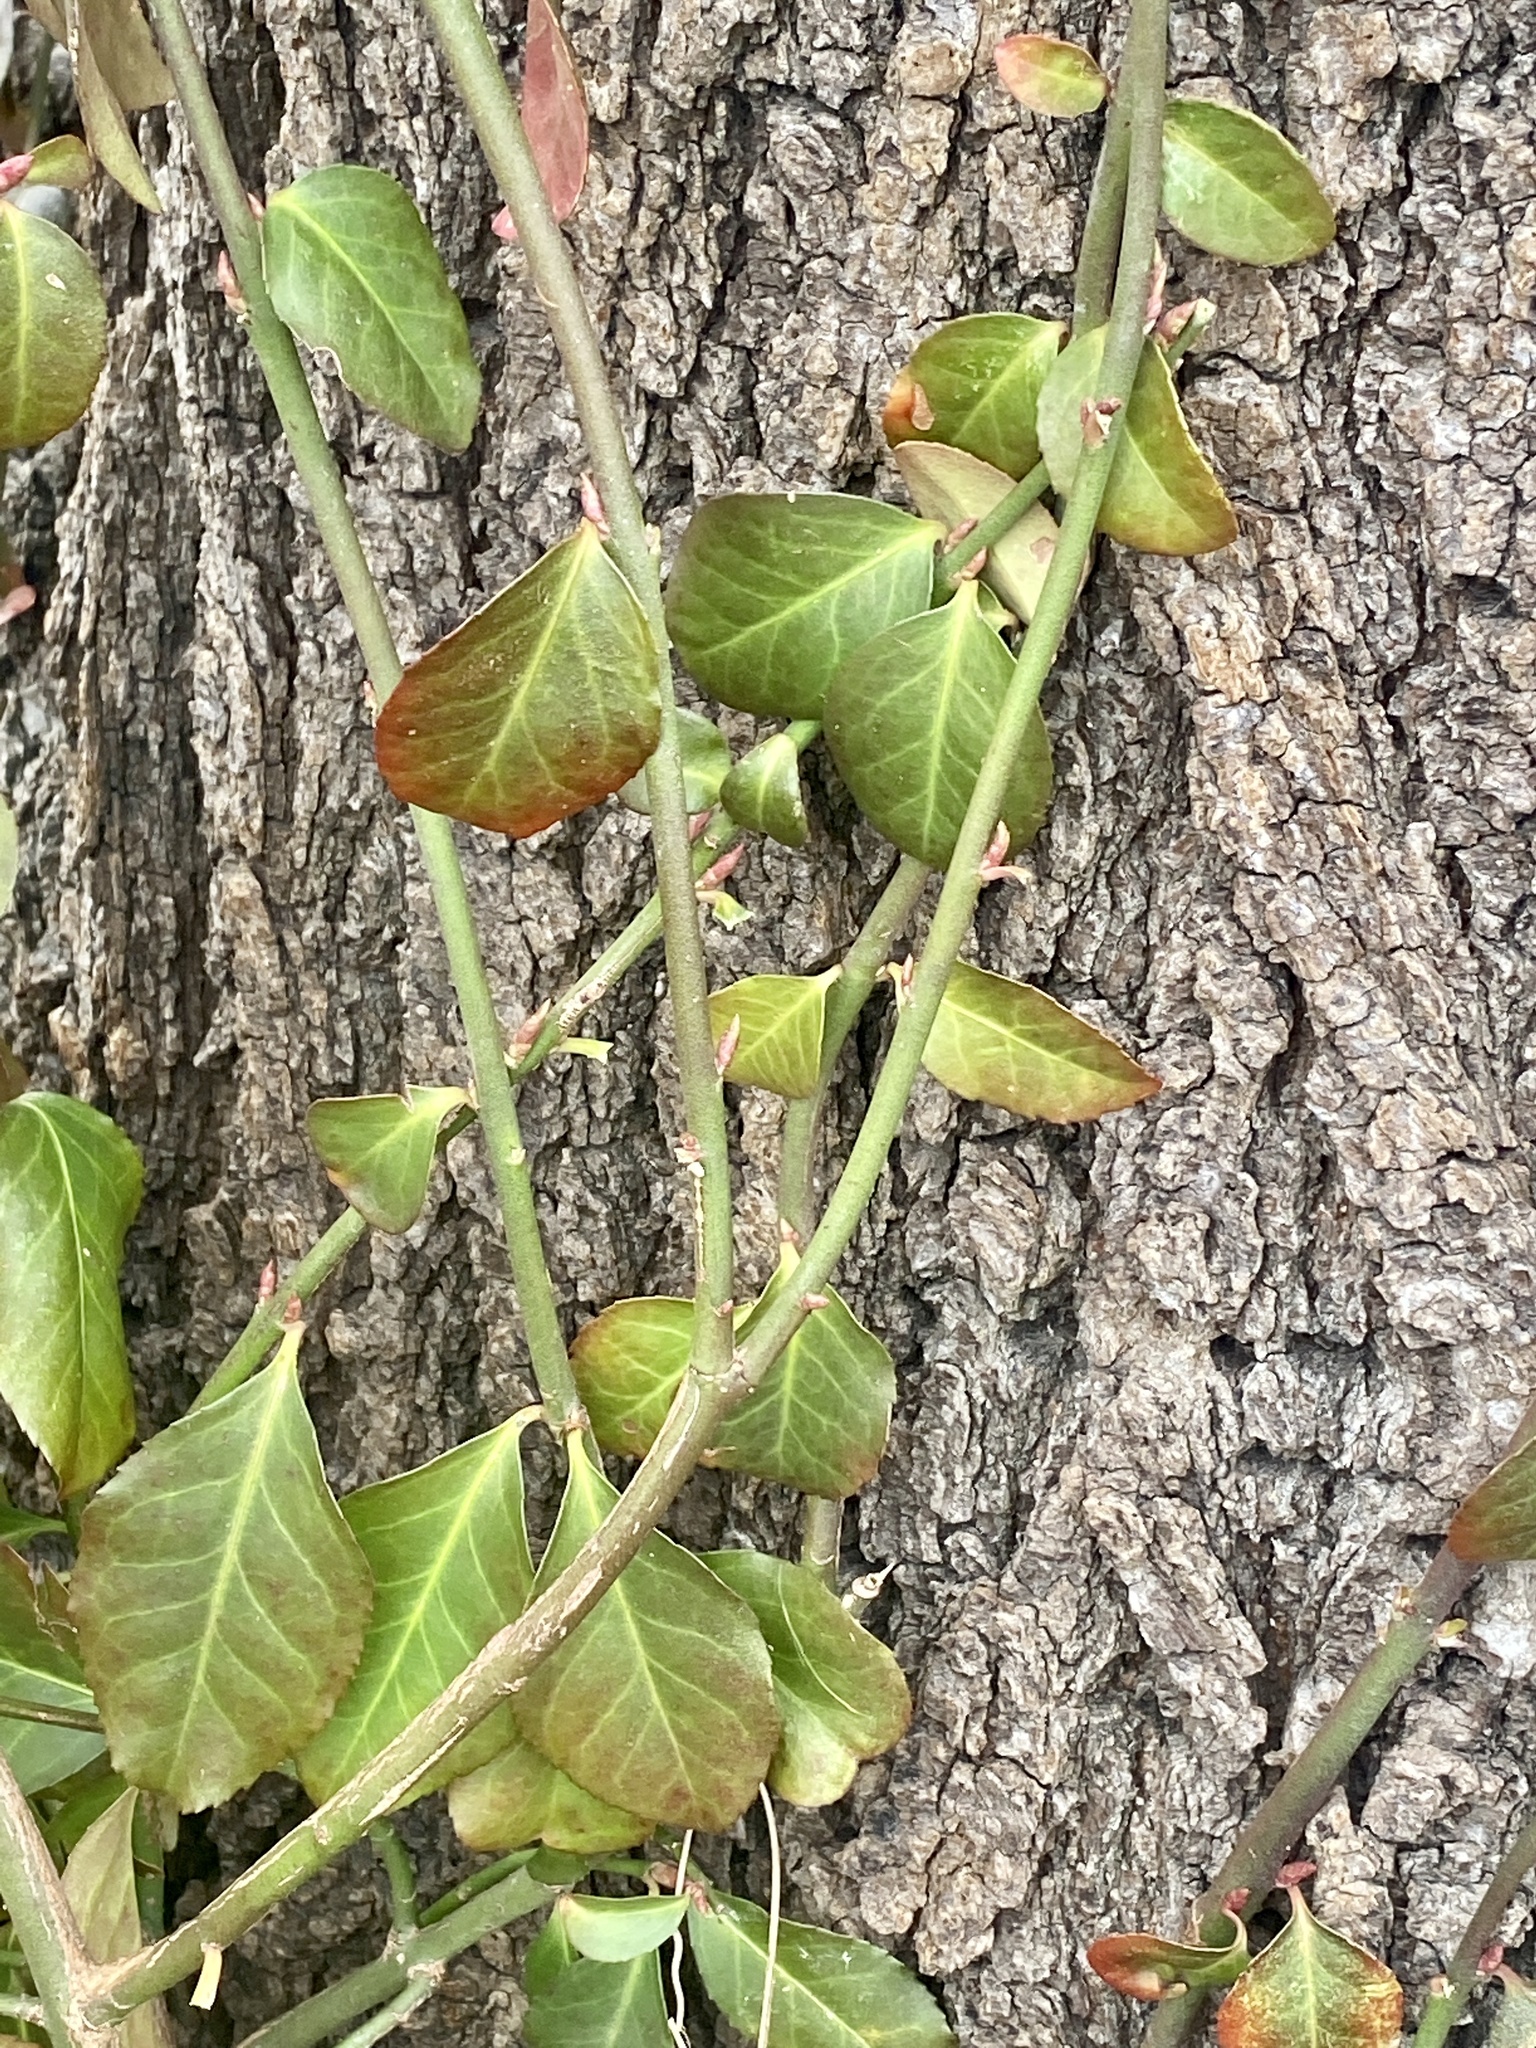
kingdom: Plantae
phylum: Tracheophyta
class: Magnoliopsida
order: Celastrales
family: Celastraceae
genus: Euonymus
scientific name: Euonymus fortunei
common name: Climbing euonymus
